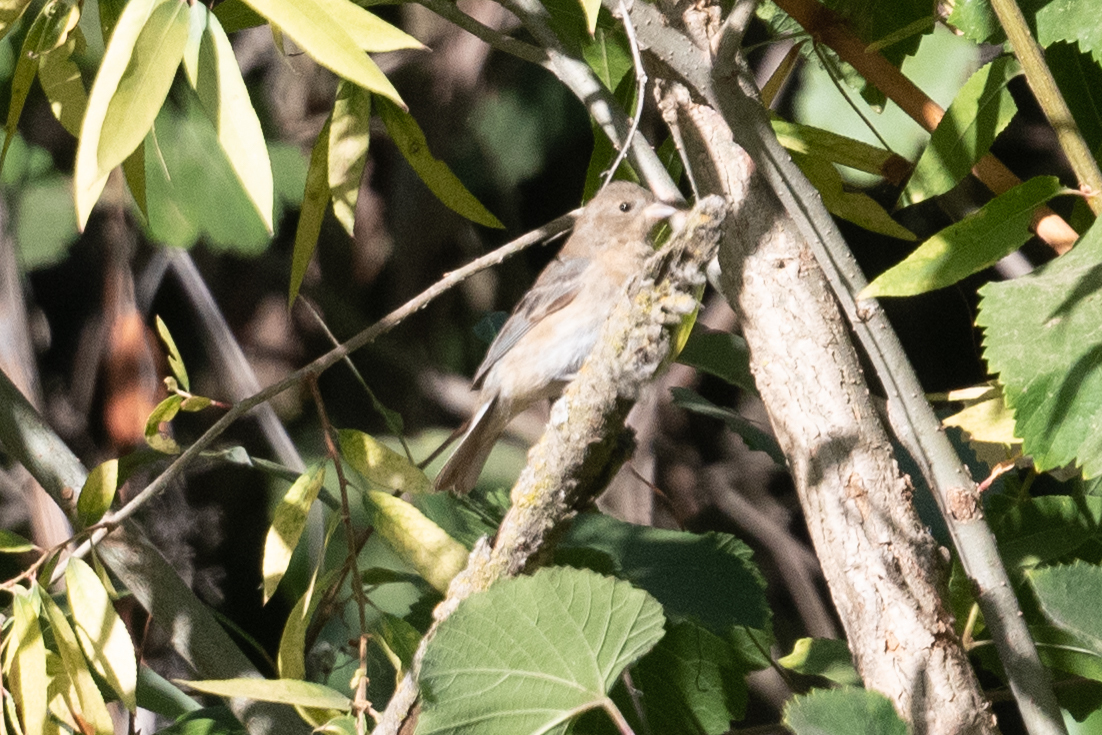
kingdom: Animalia
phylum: Chordata
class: Aves
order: Passeriformes
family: Cardinalidae
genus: Passerina
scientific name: Passerina amoena
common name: Lazuli bunting
